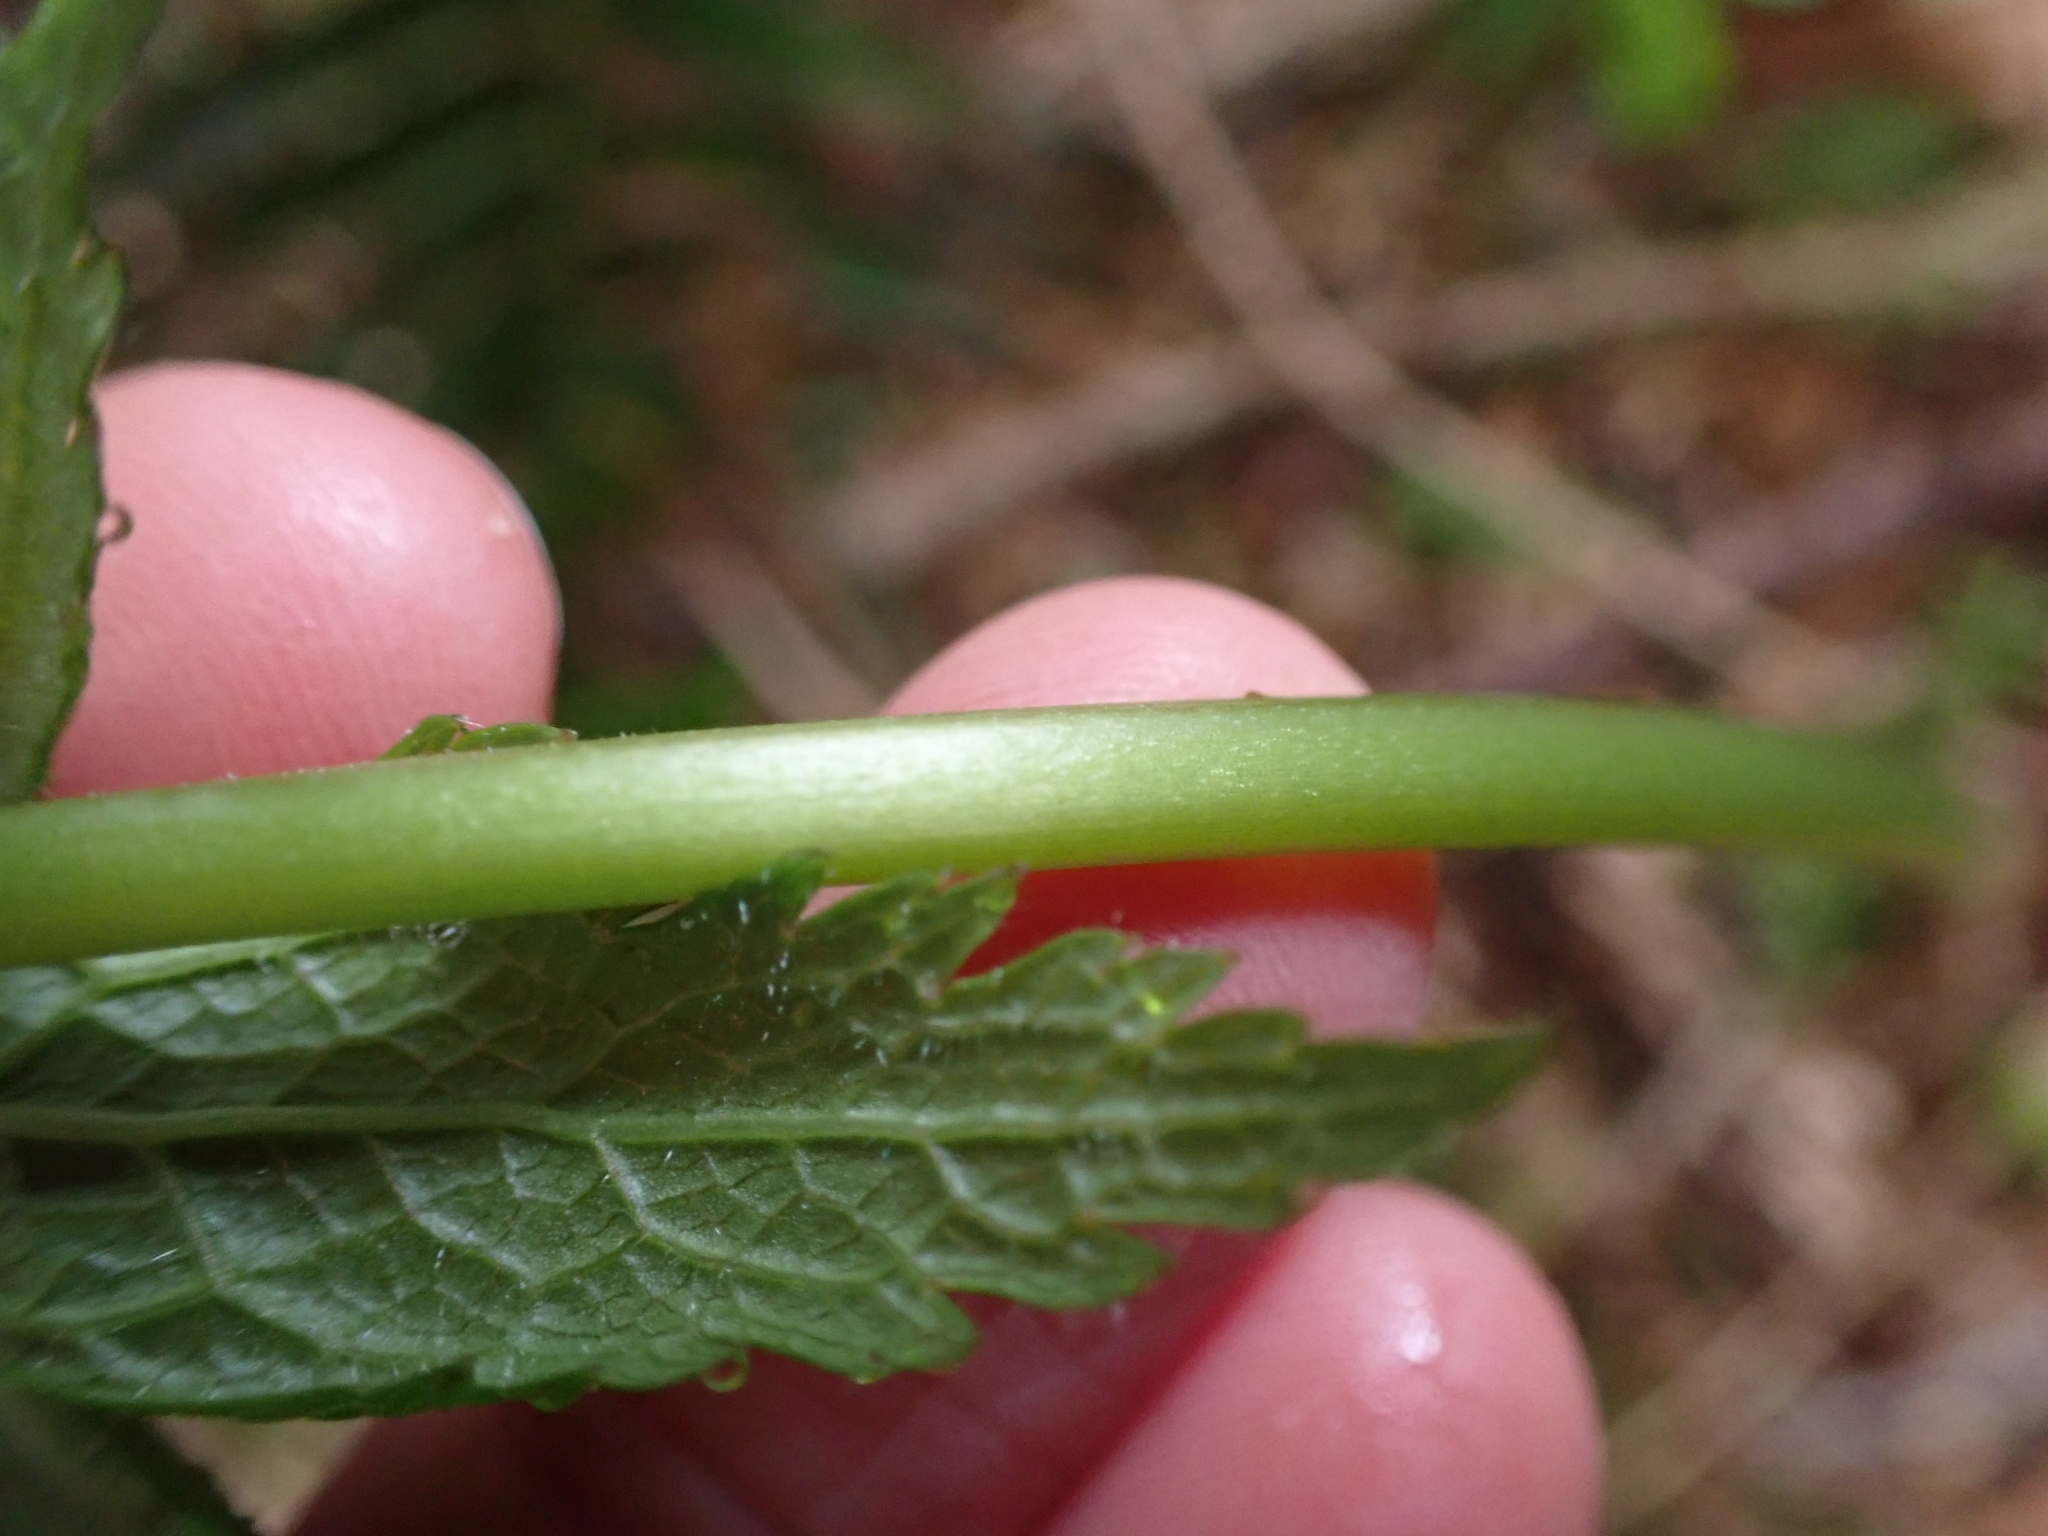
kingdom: Plantae
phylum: Tracheophyta
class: Magnoliopsida
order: Ranunculales
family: Ranunculaceae
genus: Trautvetteria
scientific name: Trautvetteria carolinensis
